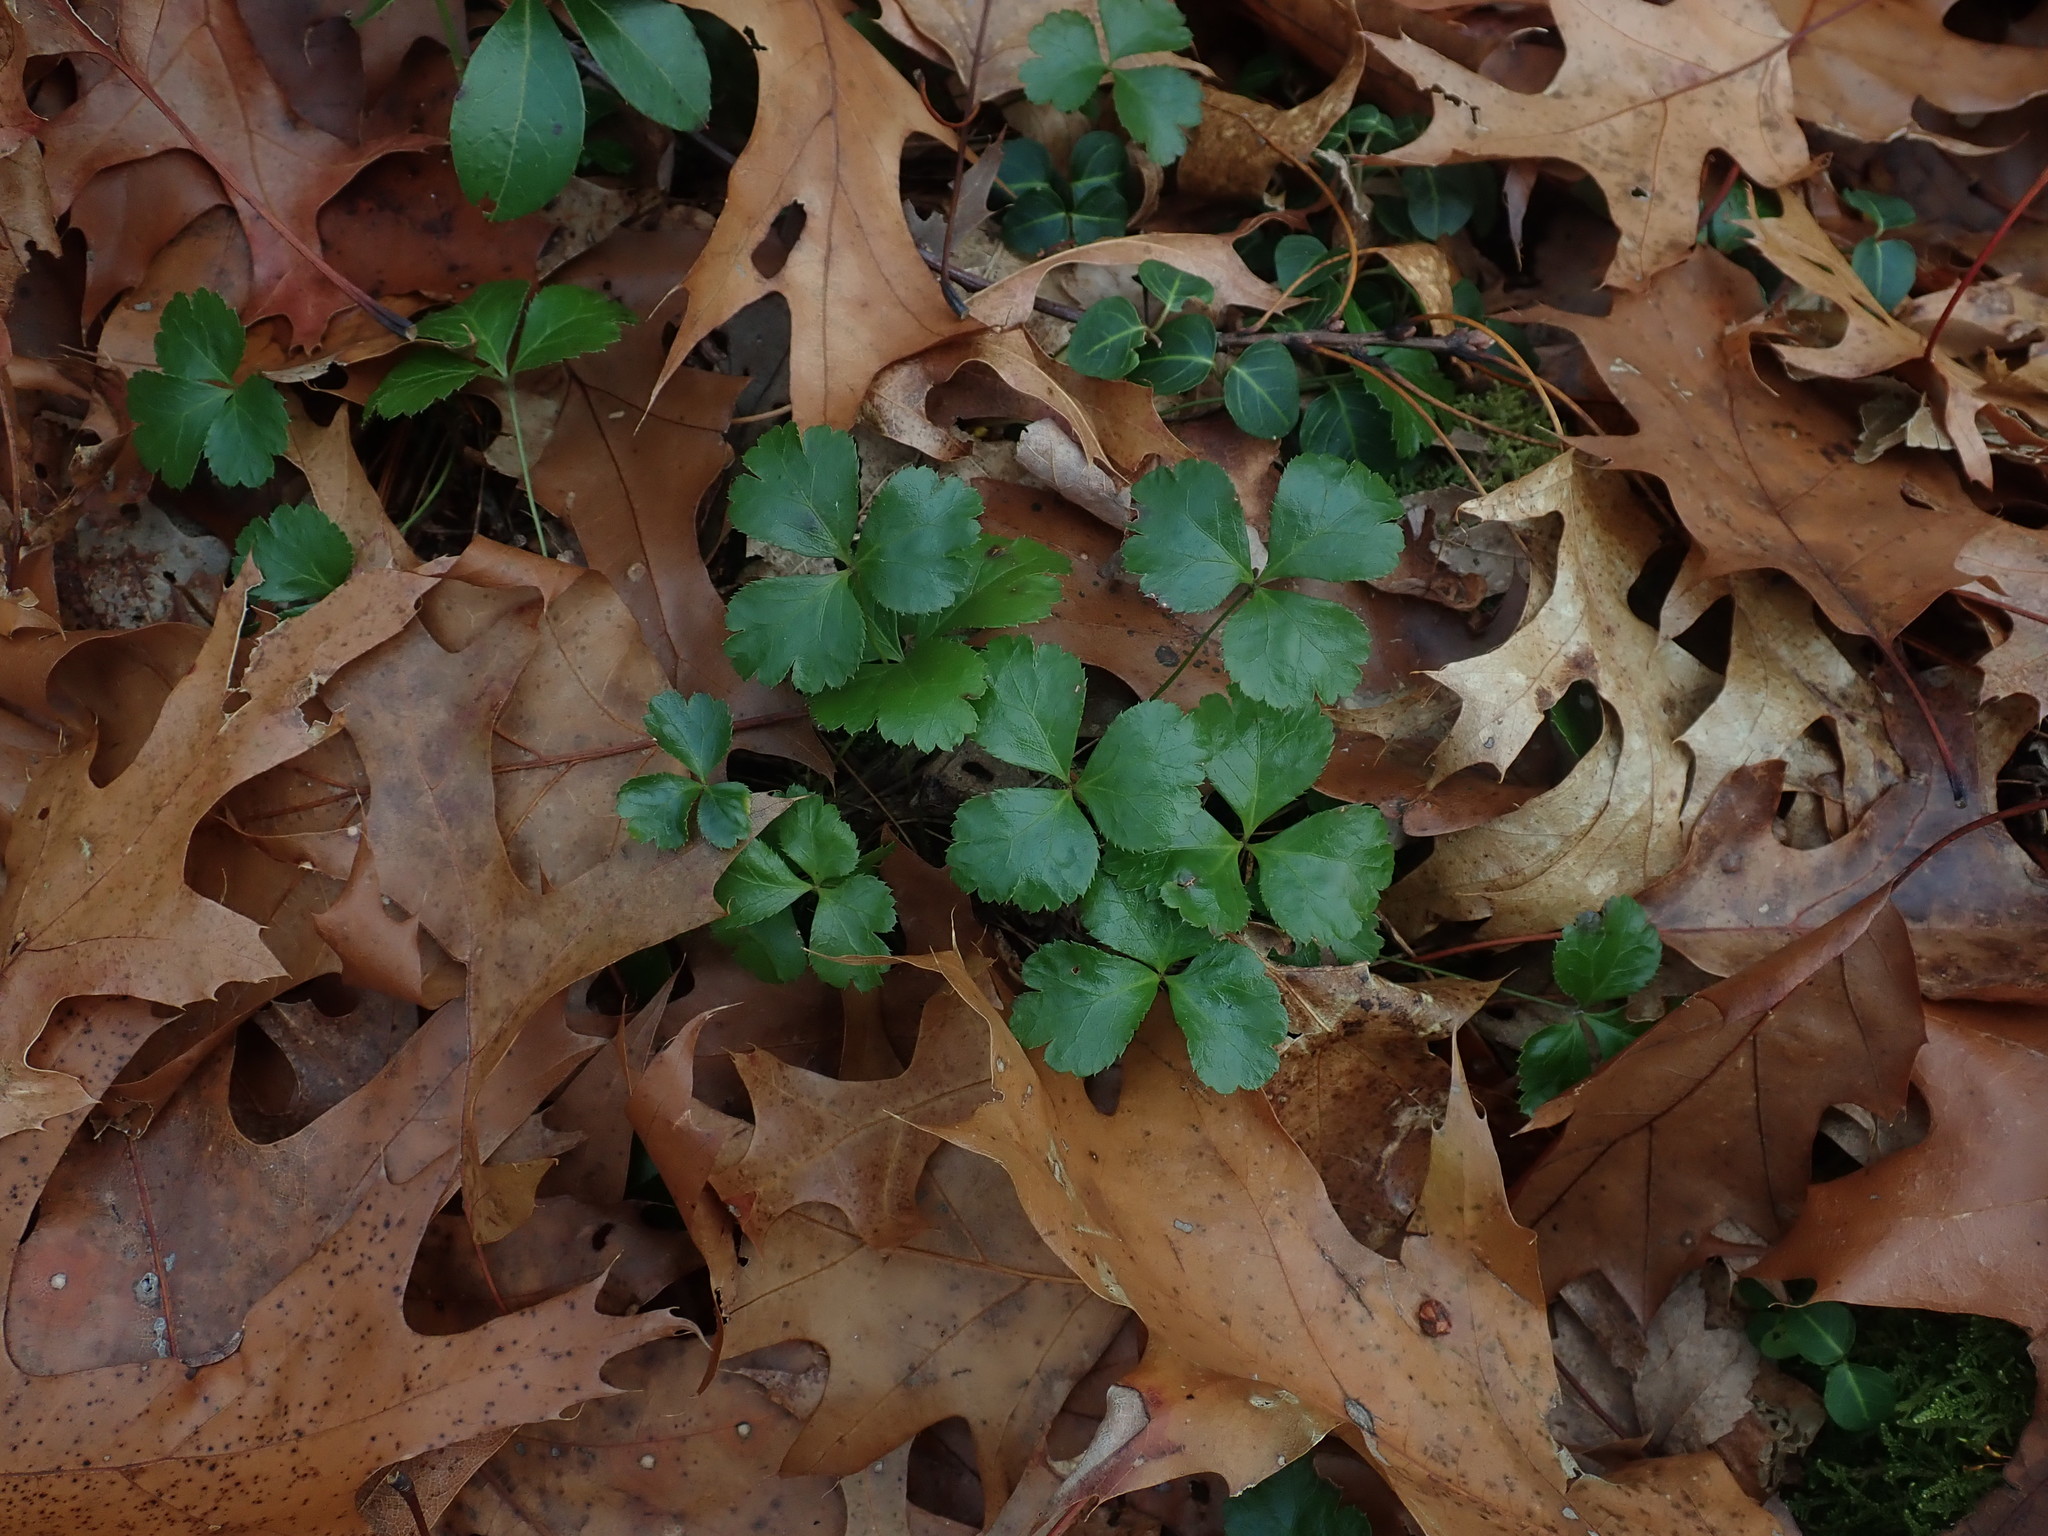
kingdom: Plantae
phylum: Tracheophyta
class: Magnoliopsida
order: Ranunculales
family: Ranunculaceae
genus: Coptis
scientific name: Coptis trifolia
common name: Canker-root
